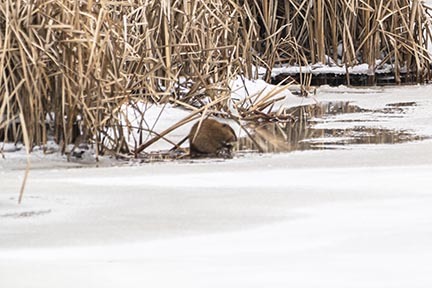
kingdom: Animalia
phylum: Chordata
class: Mammalia
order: Rodentia
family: Cricetidae
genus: Ondatra
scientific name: Ondatra zibethicus
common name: Muskrat
